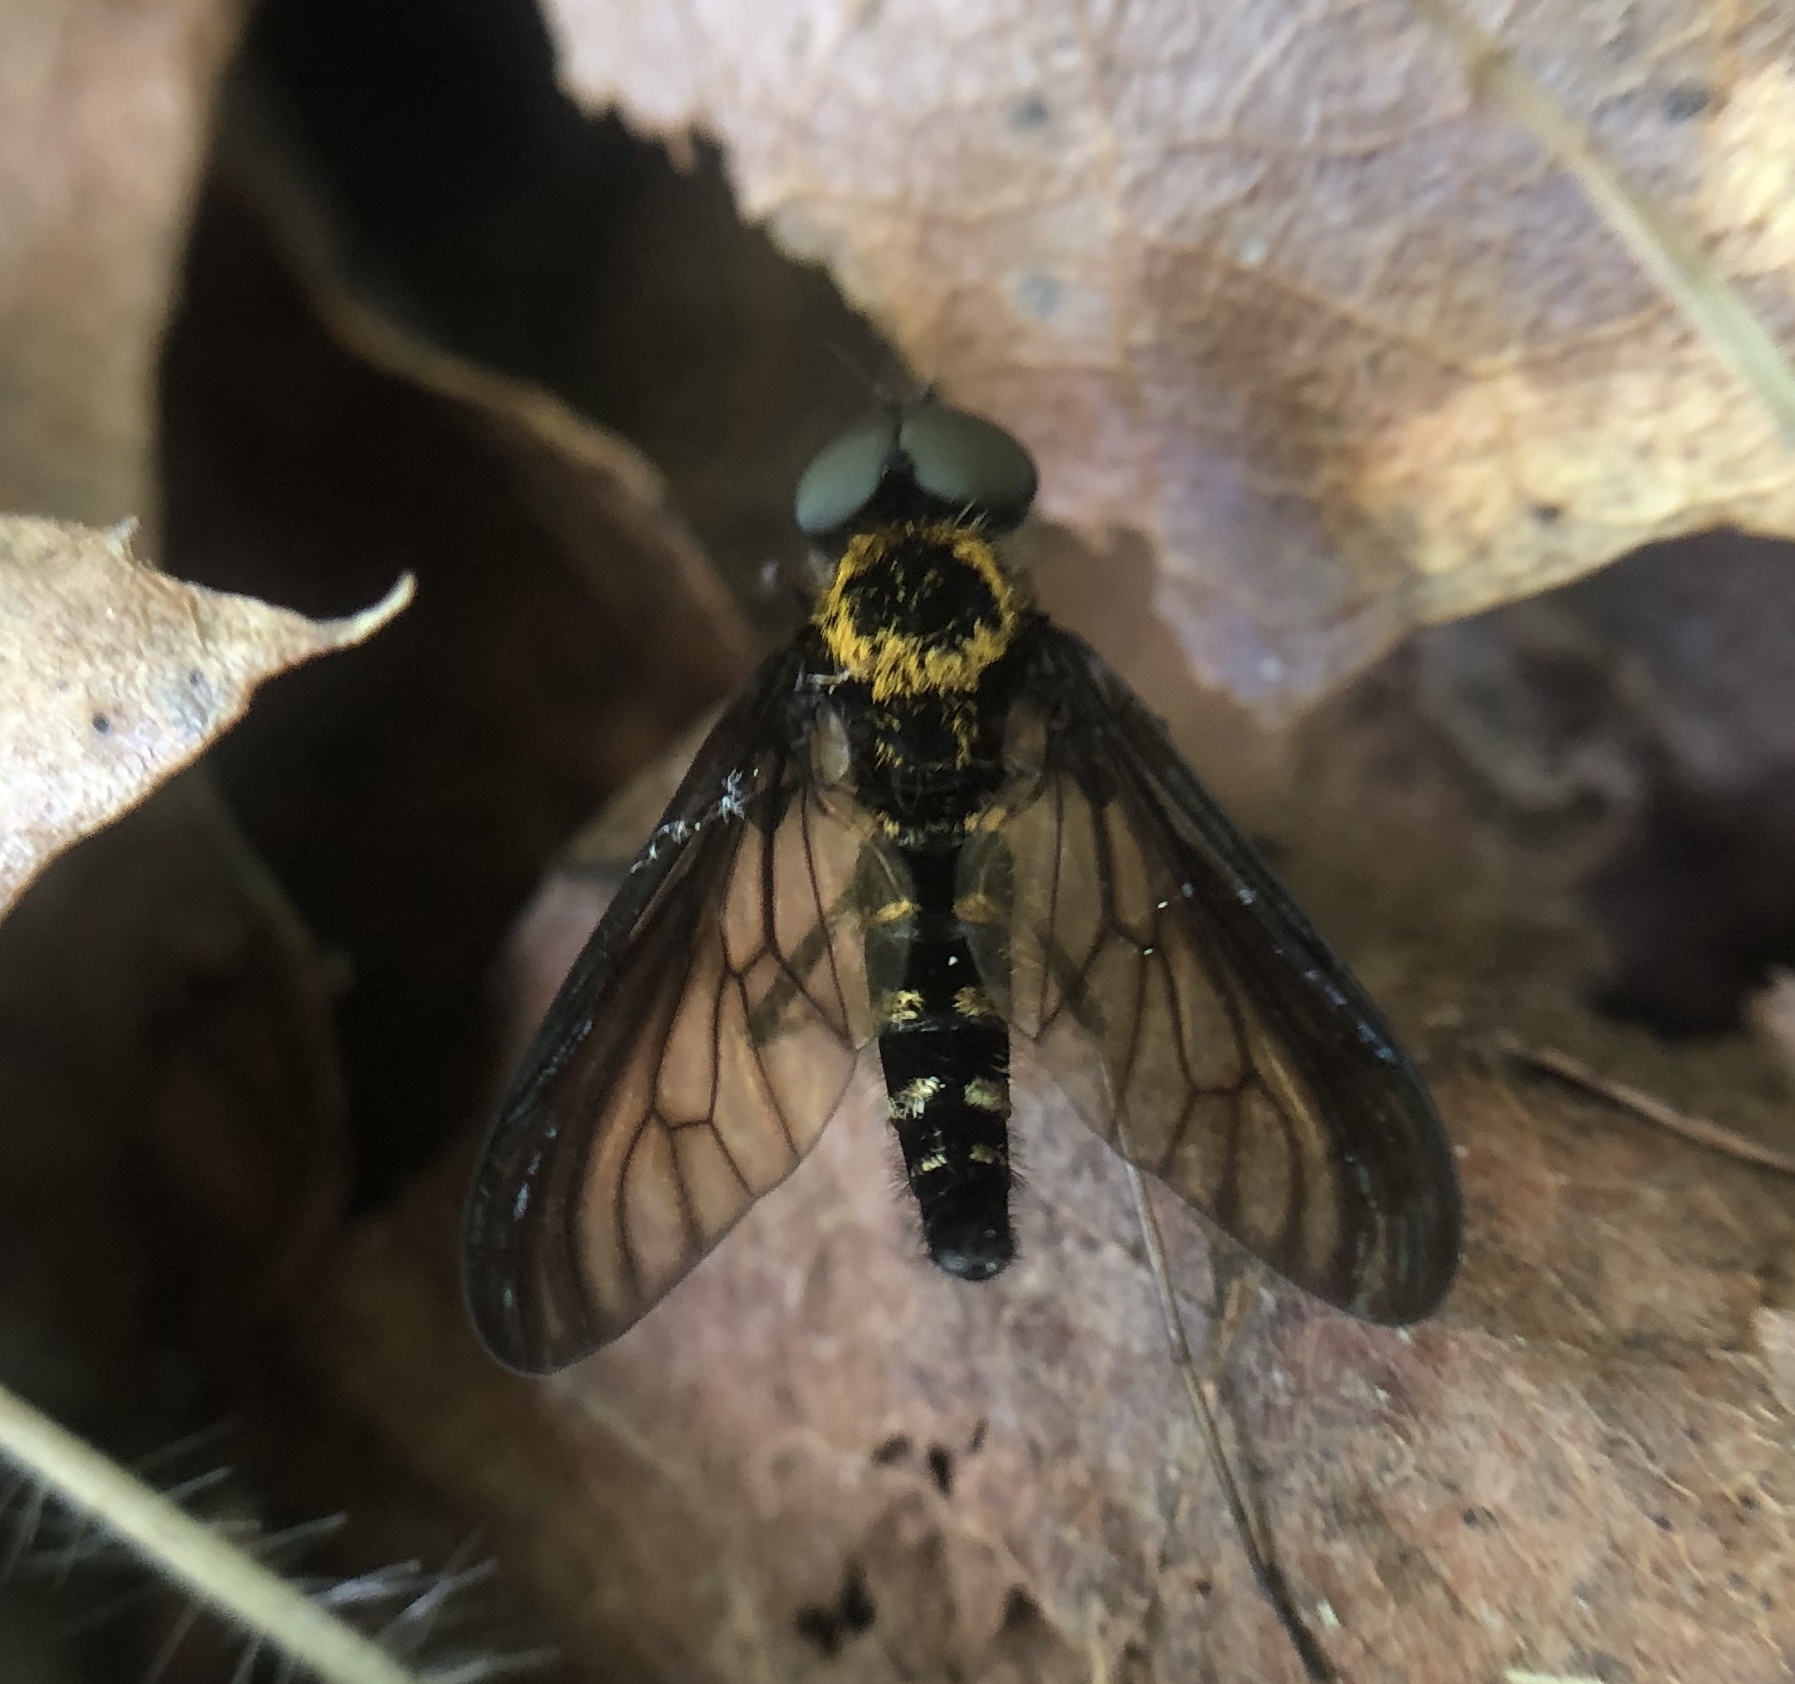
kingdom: Animalia
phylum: Arthropoda
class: Insecta
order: Diptera
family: Rhagionidae
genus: Chrysopilus
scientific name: Chrysopilus thoracicus
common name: Golden-backed snipe fly
